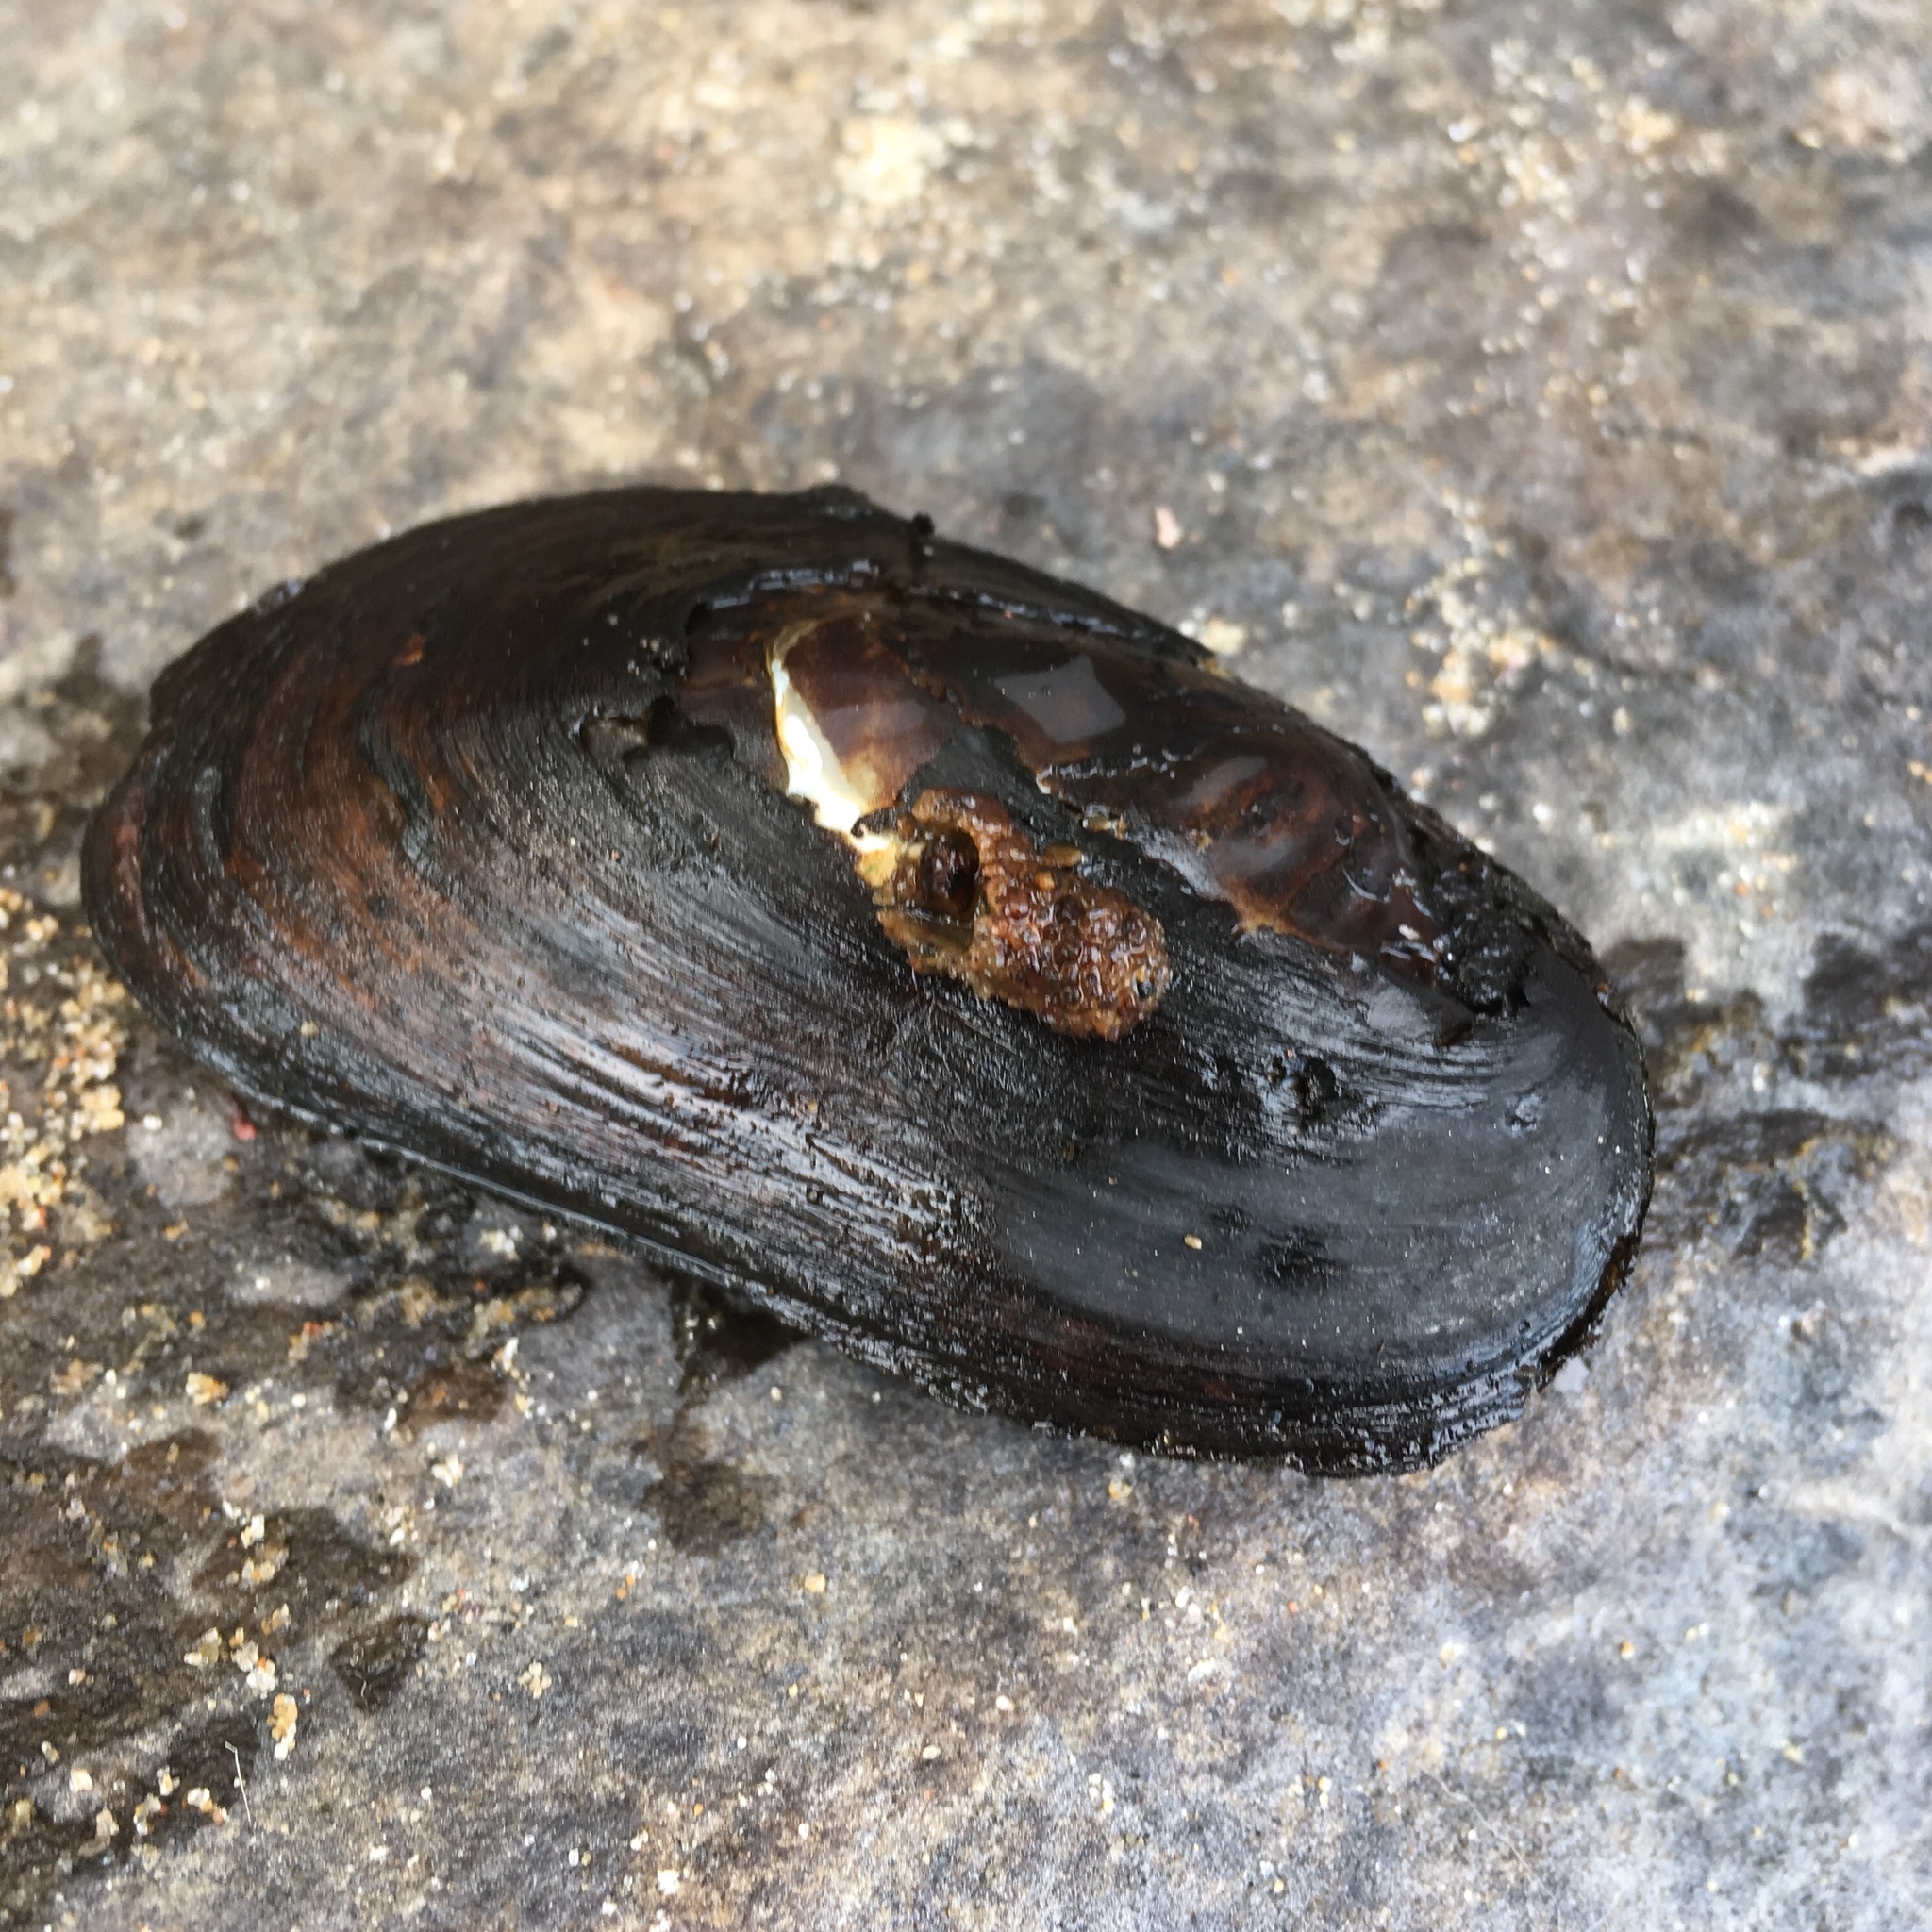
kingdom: Animalia
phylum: Mollusca
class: Bivalvia
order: Unionida
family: Unionidae
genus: Elliptio
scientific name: Elliptio complanata
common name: Eastern elliptio
